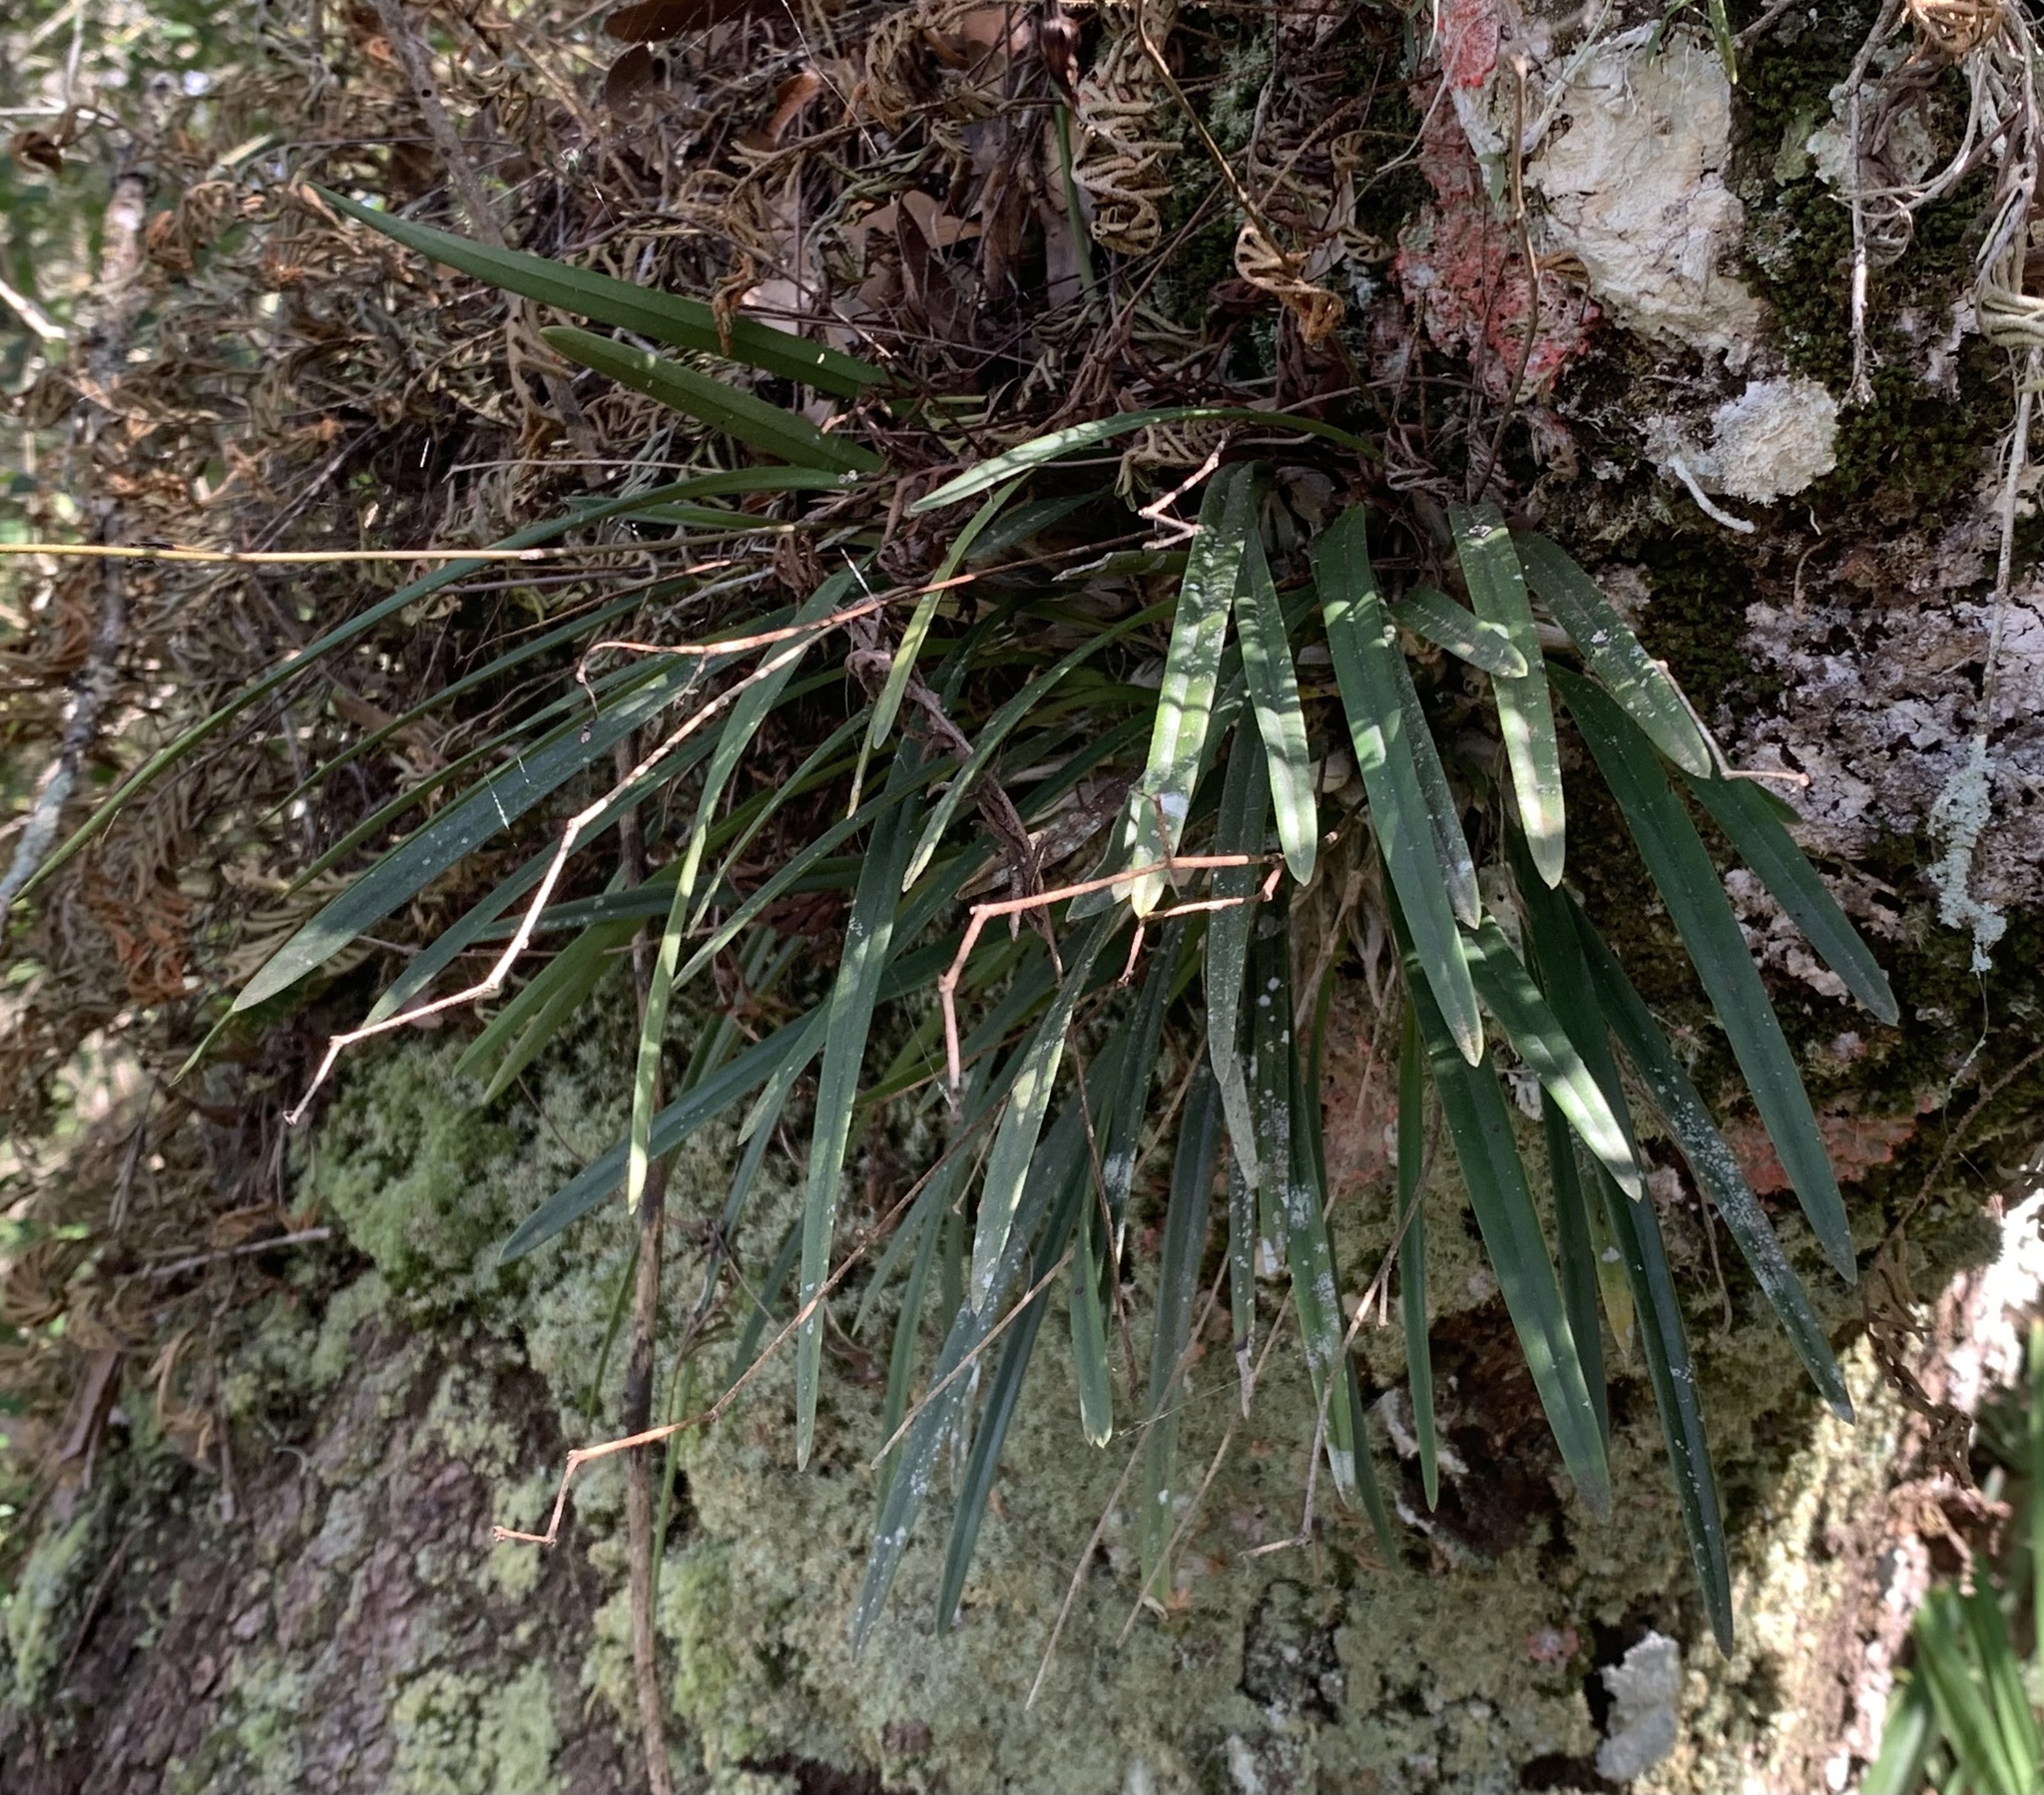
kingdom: Plantae
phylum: Tracheophyta
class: Liliopsida
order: Asparagales
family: Orchidaceae
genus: Encyclia
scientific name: Encyclia tampensis
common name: Florida butterfly orchid
